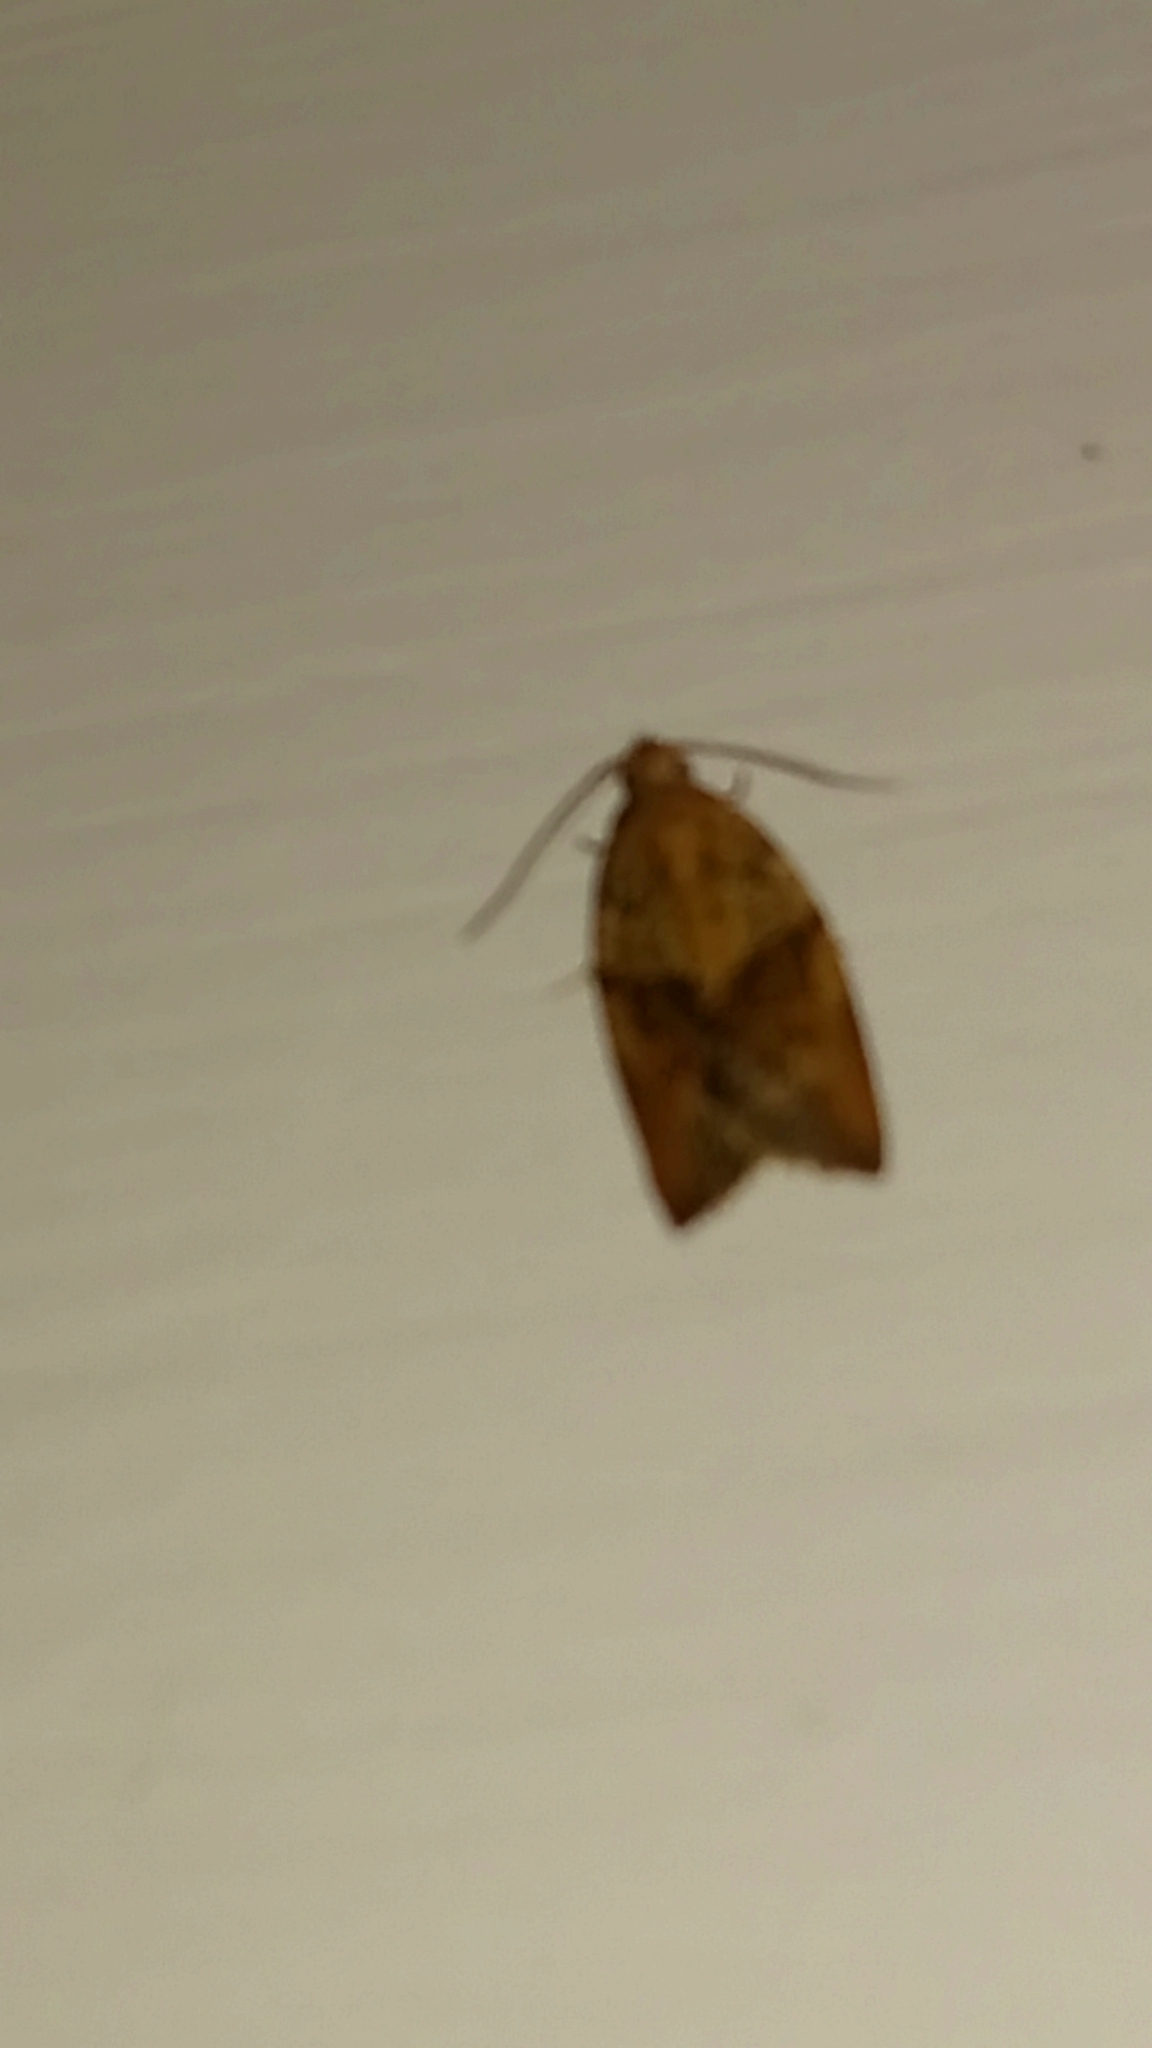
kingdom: Animalia
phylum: Arthropoda
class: Insecta
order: Lepidoptera
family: Tortricidae
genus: Epiphyas
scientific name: Epiphyas postvittana
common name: Light brown apple moth
